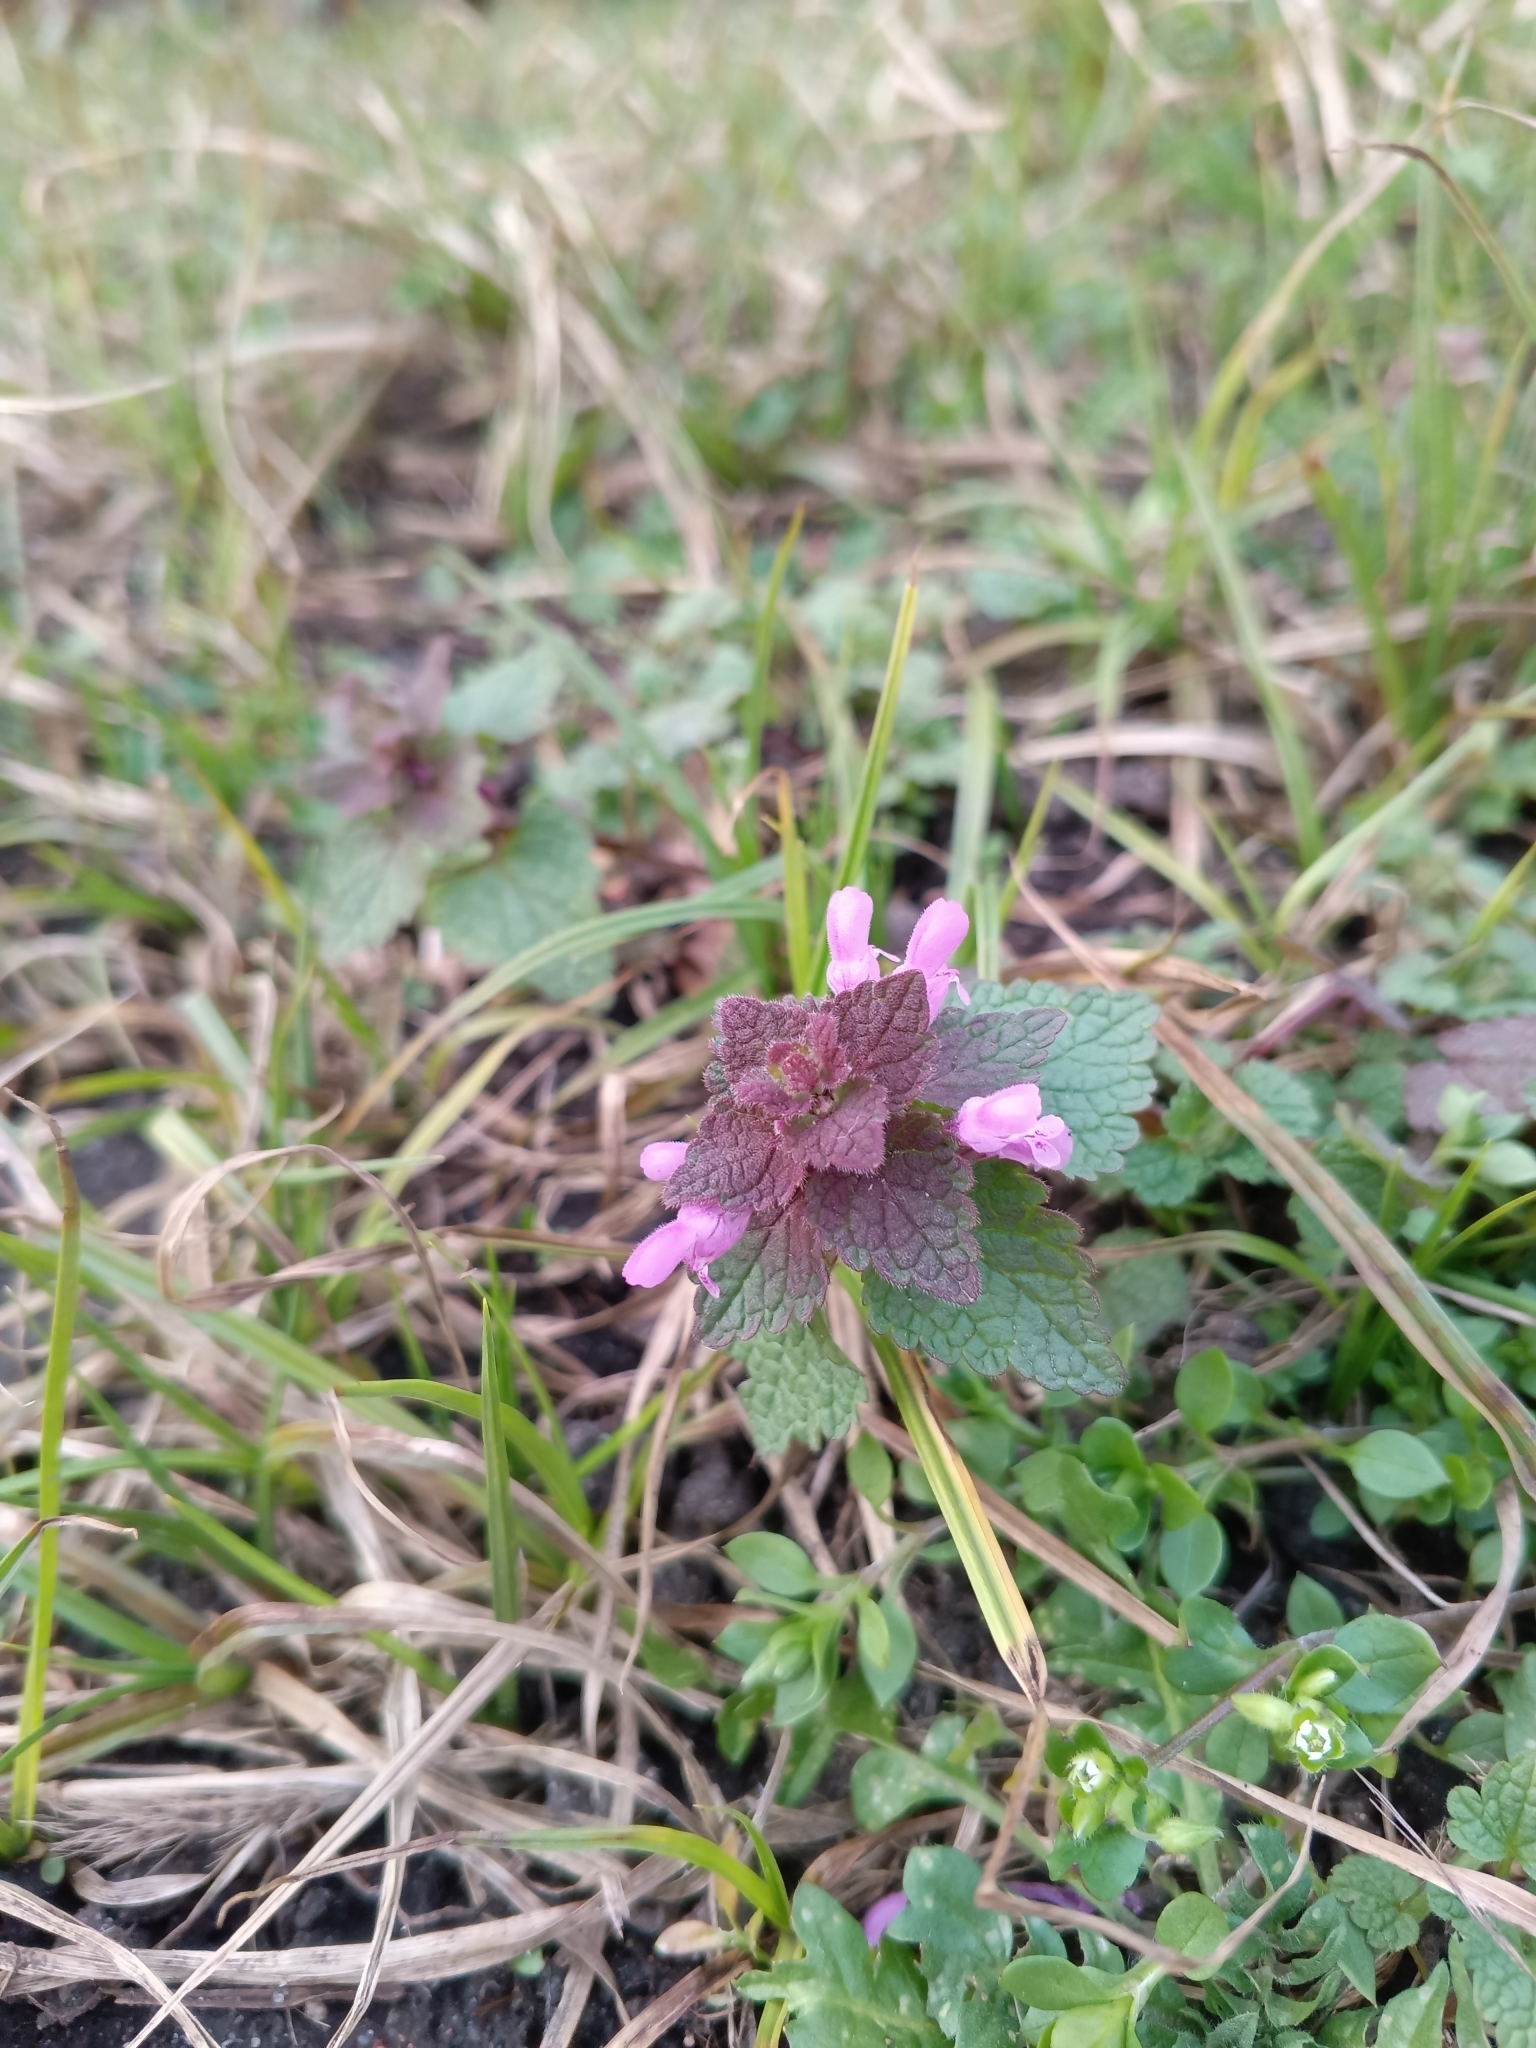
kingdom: Plantae
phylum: Tracheophyta
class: Magnoliopsida
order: Lamiales
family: Lamiaceae
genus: Lamium
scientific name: Lamium purpureum
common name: Red dead-nettle
